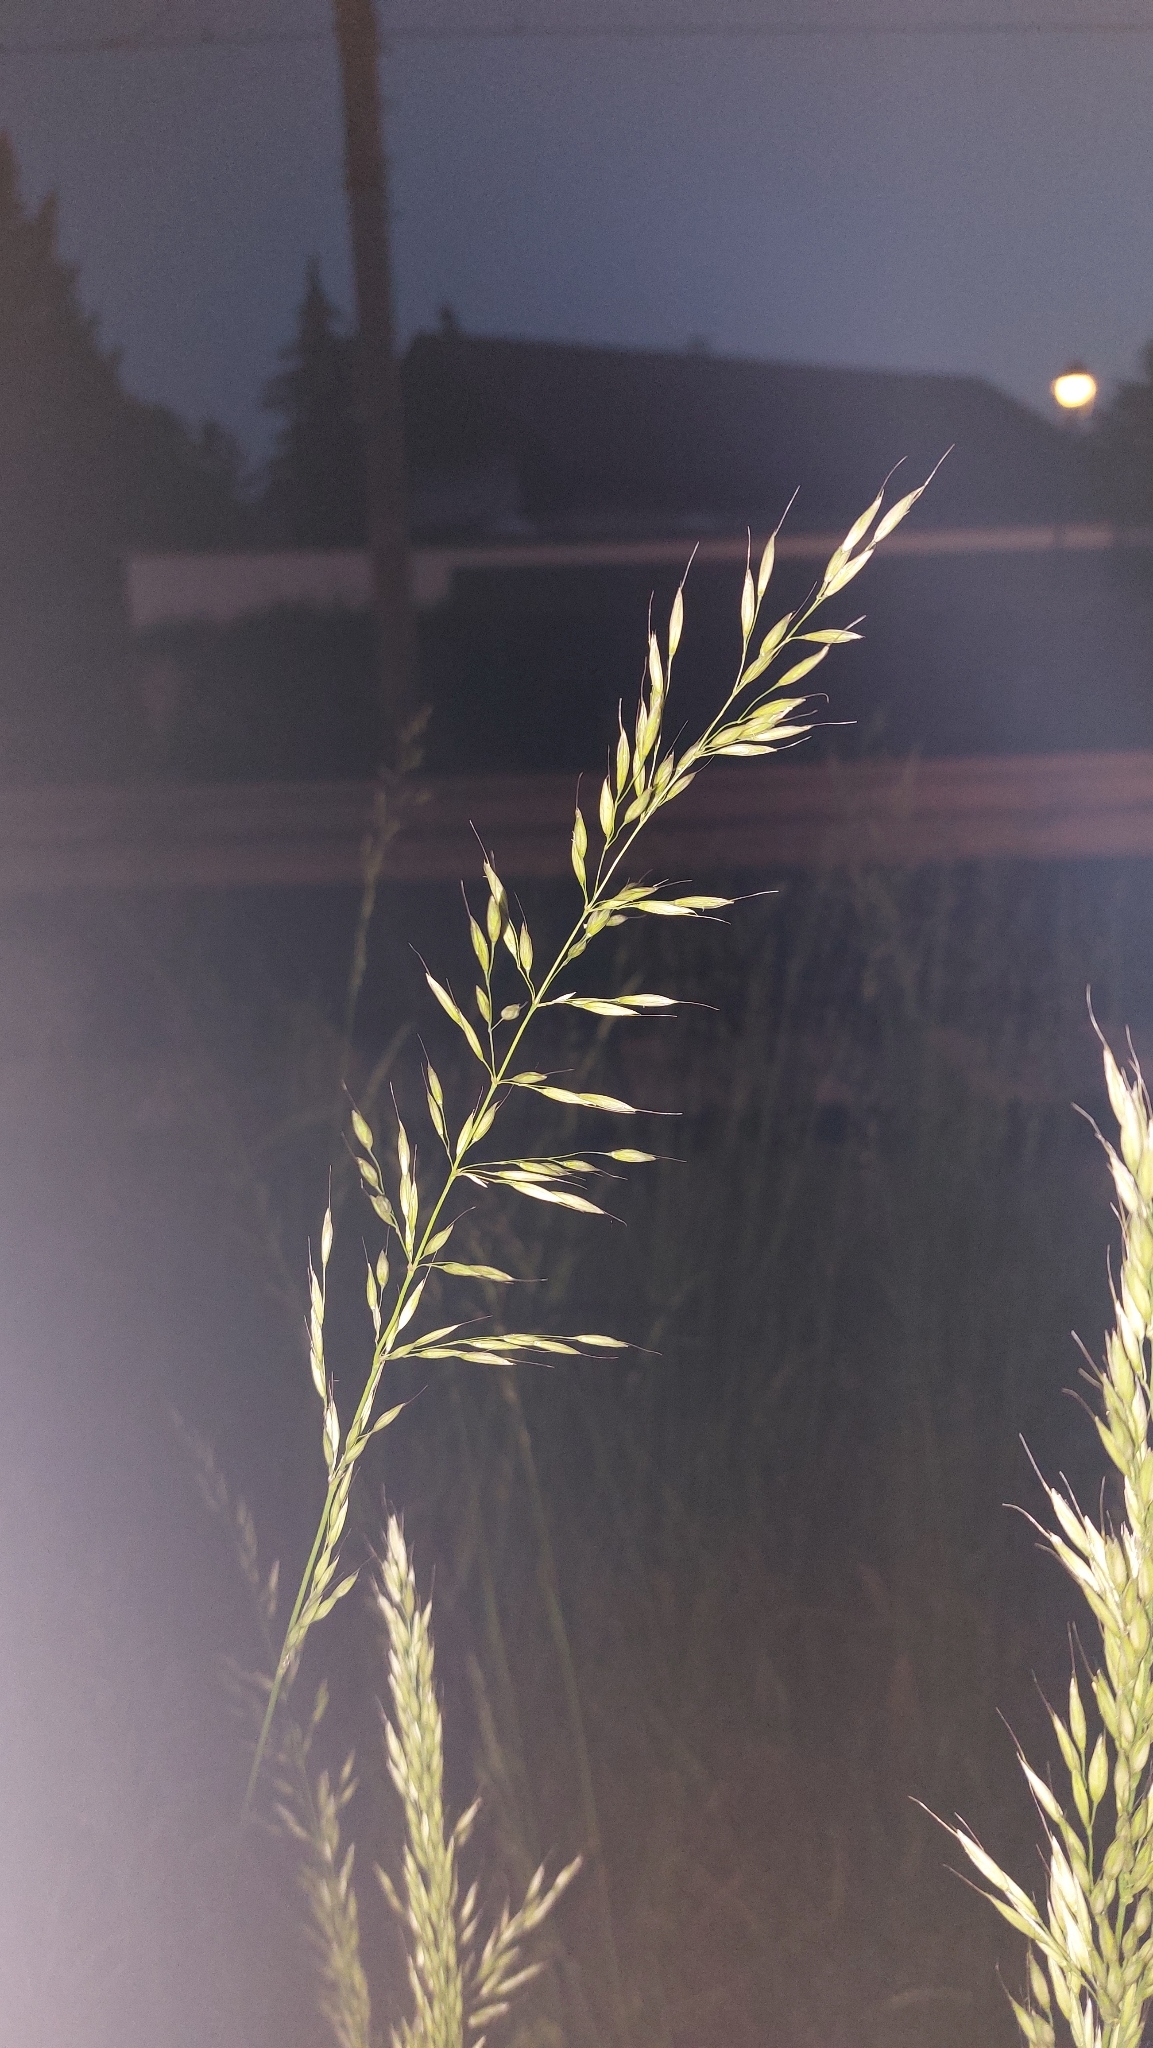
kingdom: Plantae
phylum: Tracheophyta
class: Liliopsida
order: Poales
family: Poaceae
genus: Arrhenatherum
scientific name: Arrhenatherum elatius
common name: Tall oatgrass
